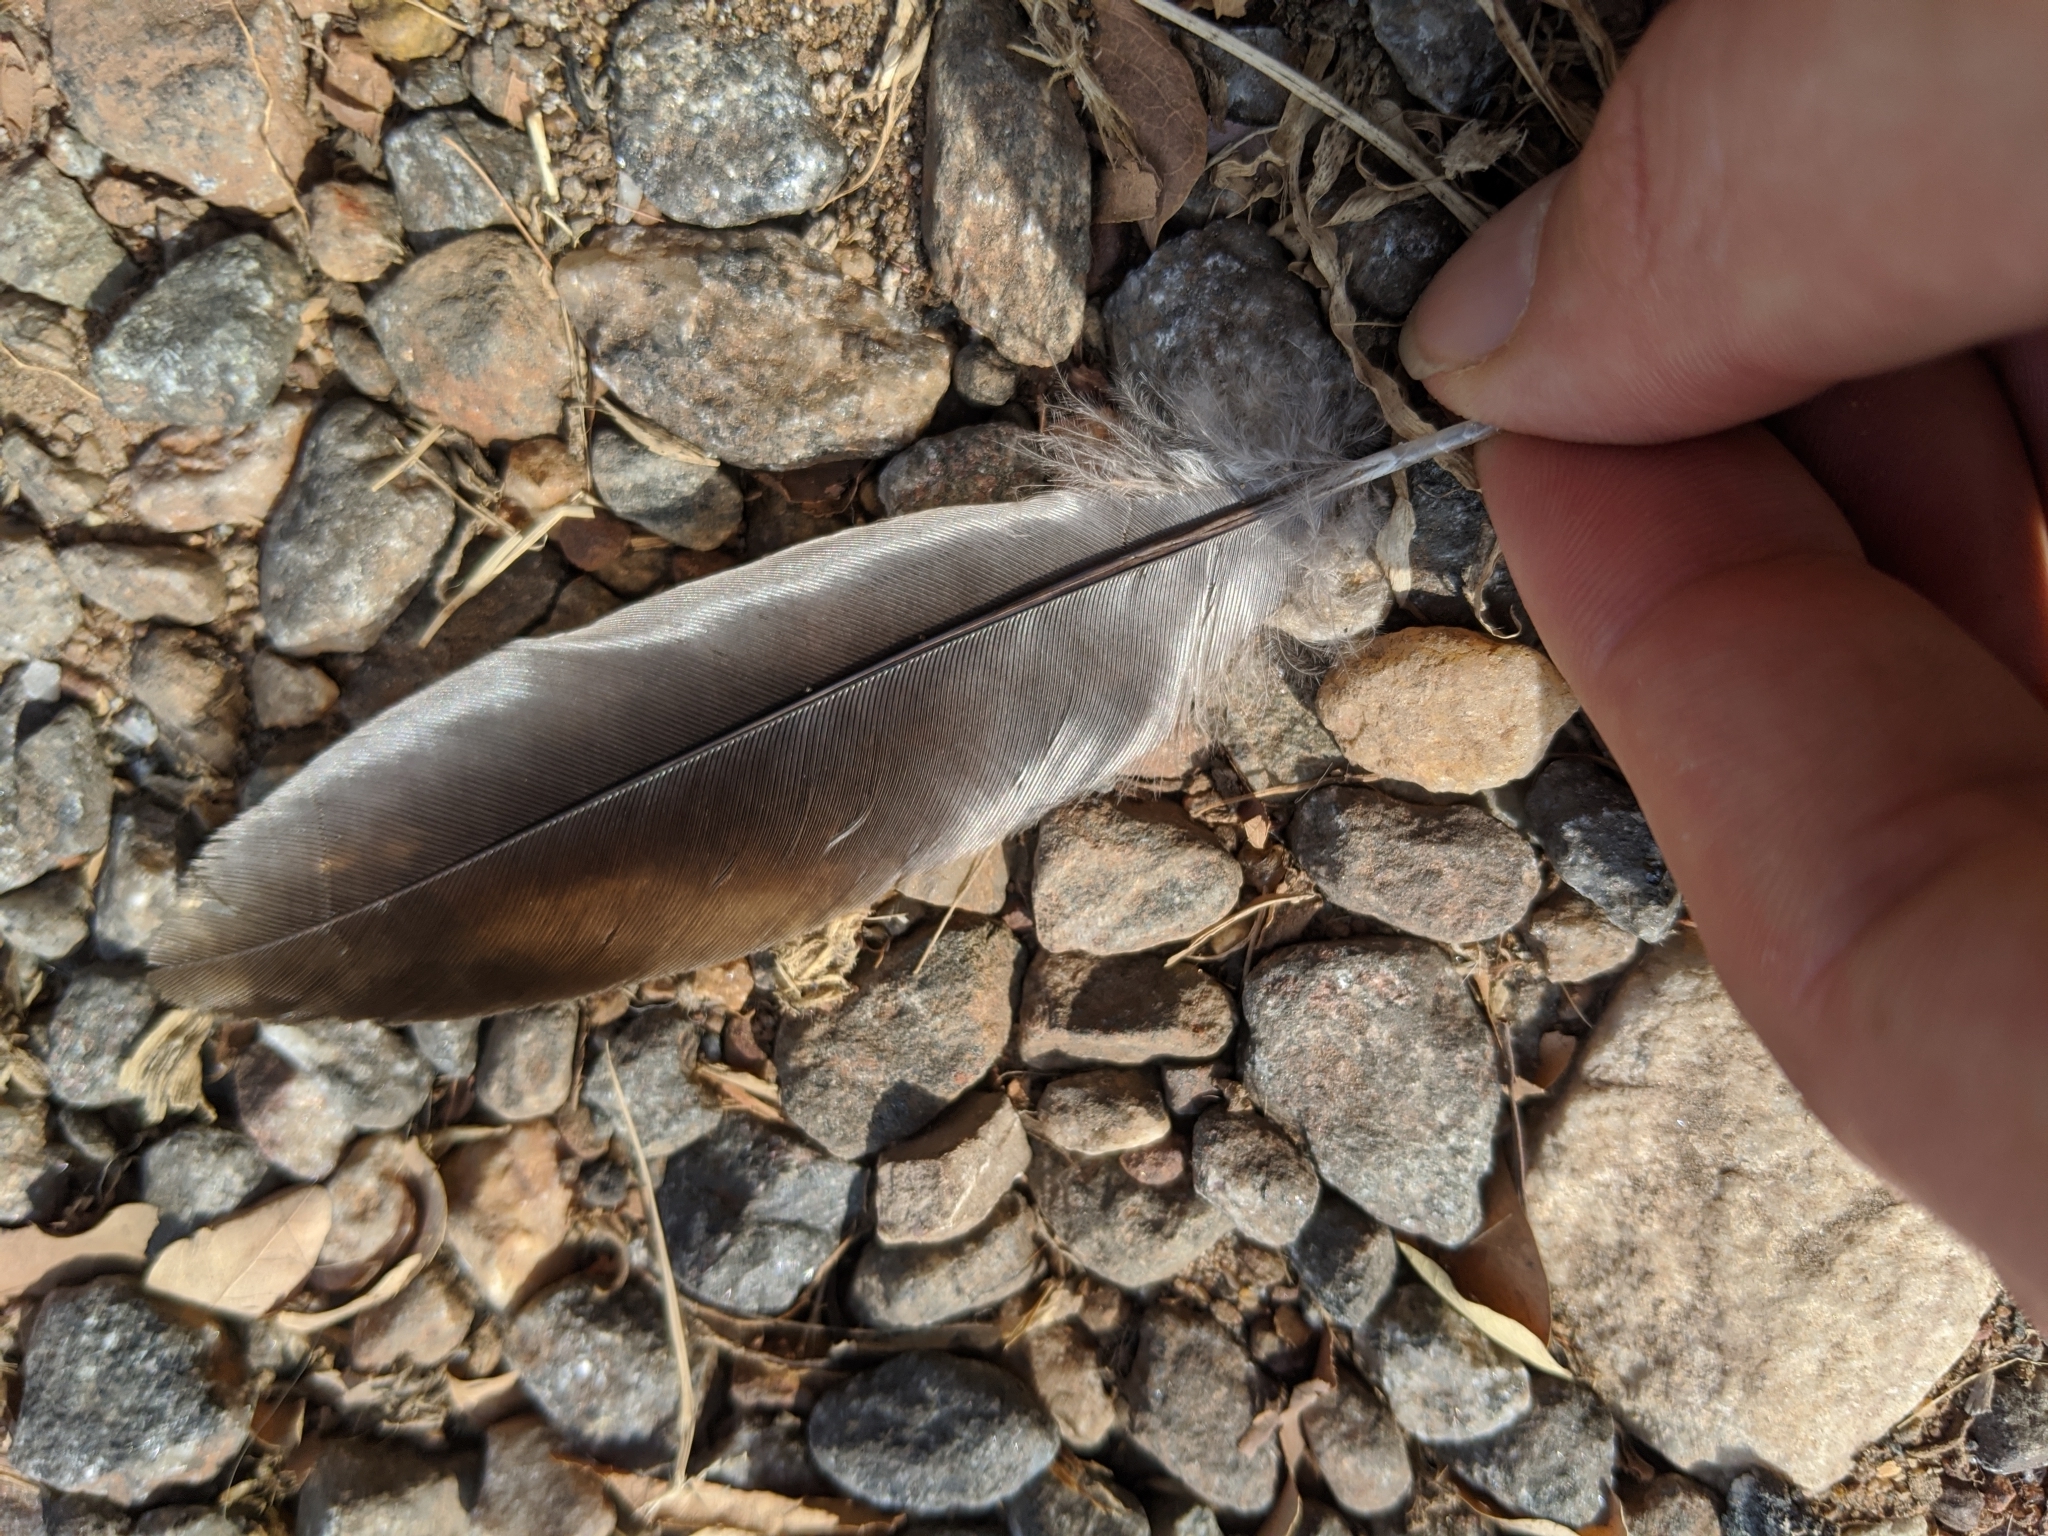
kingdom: Animalia
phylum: Chordata
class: Aves
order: Musophagiformes
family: Musophagidae
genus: Crinifer
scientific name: Crinifer piscator
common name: Western plantain-eater
